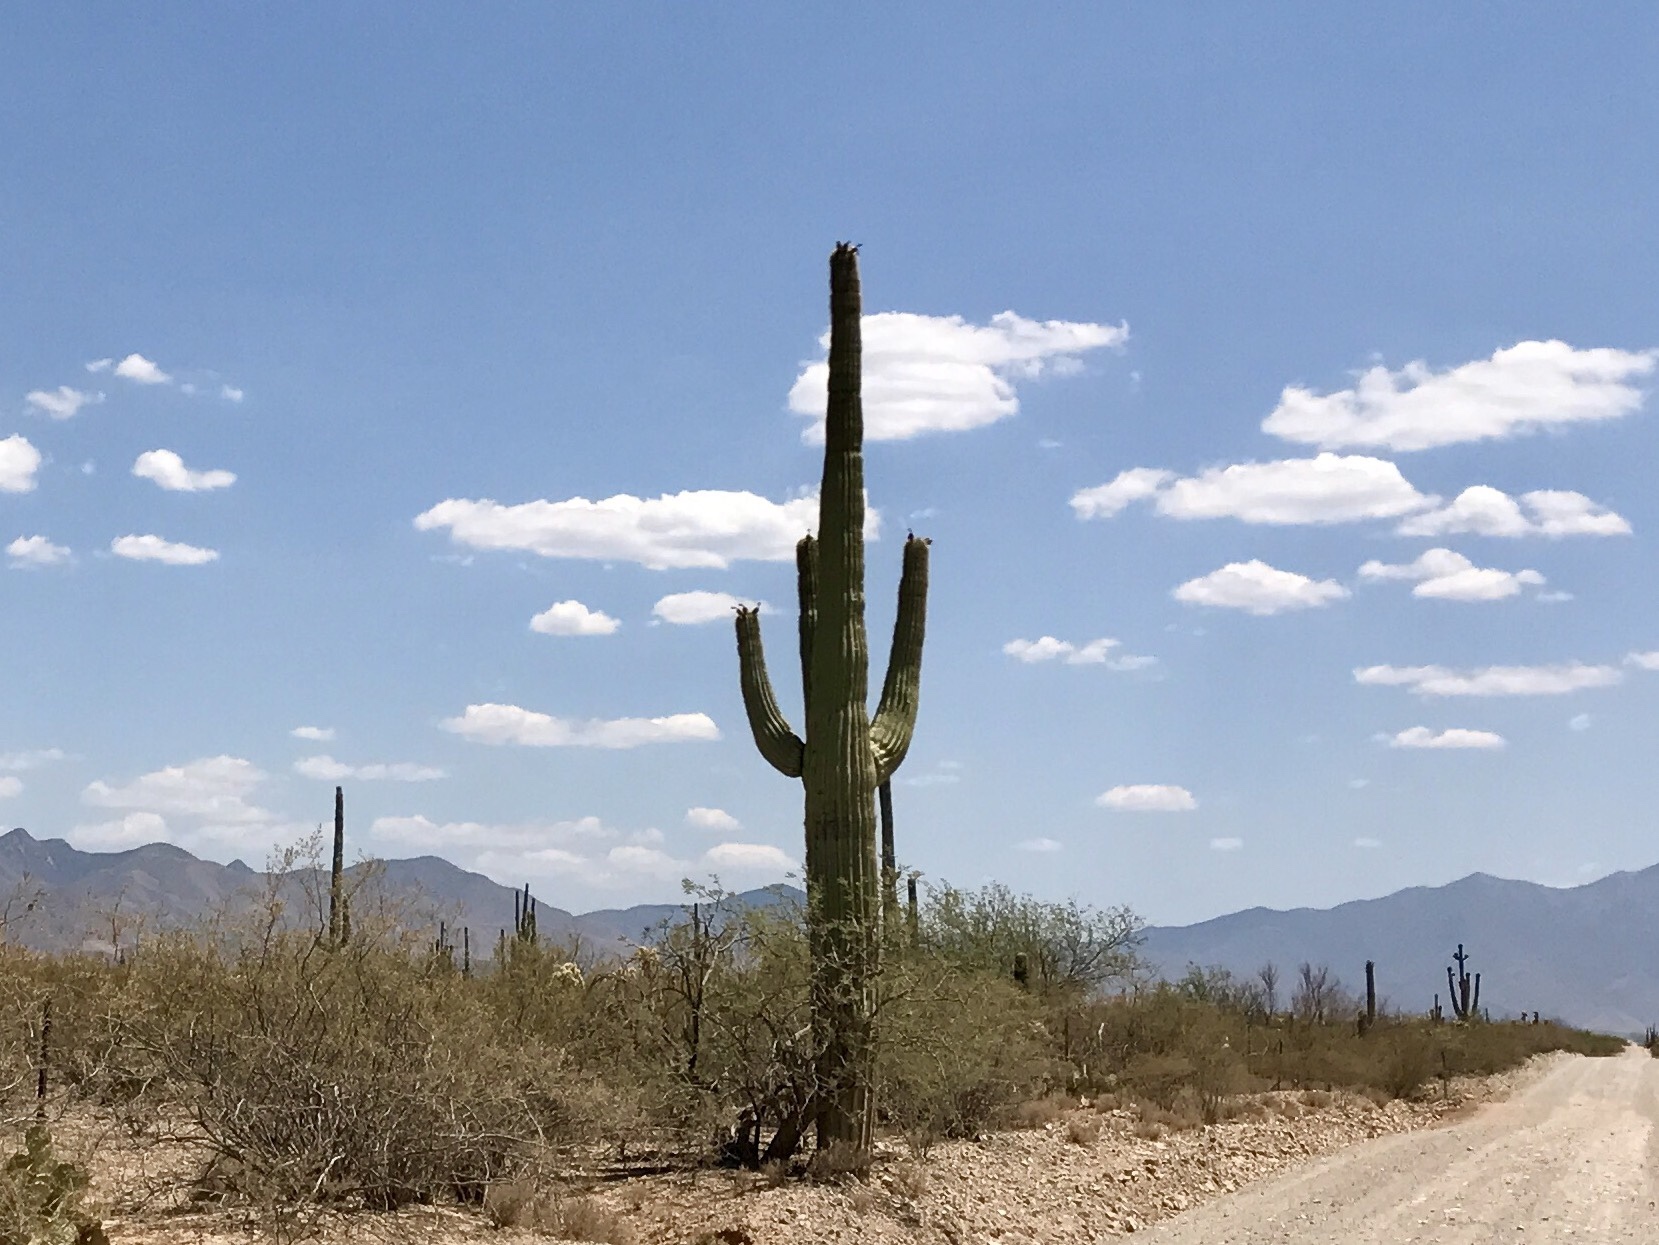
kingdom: Plantae
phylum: Tracheophyta
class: Magnoliopsida
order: Caryophyllales
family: Cactaceae
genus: Carnegiea
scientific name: Carnegiea gigantea
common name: Saguaro
